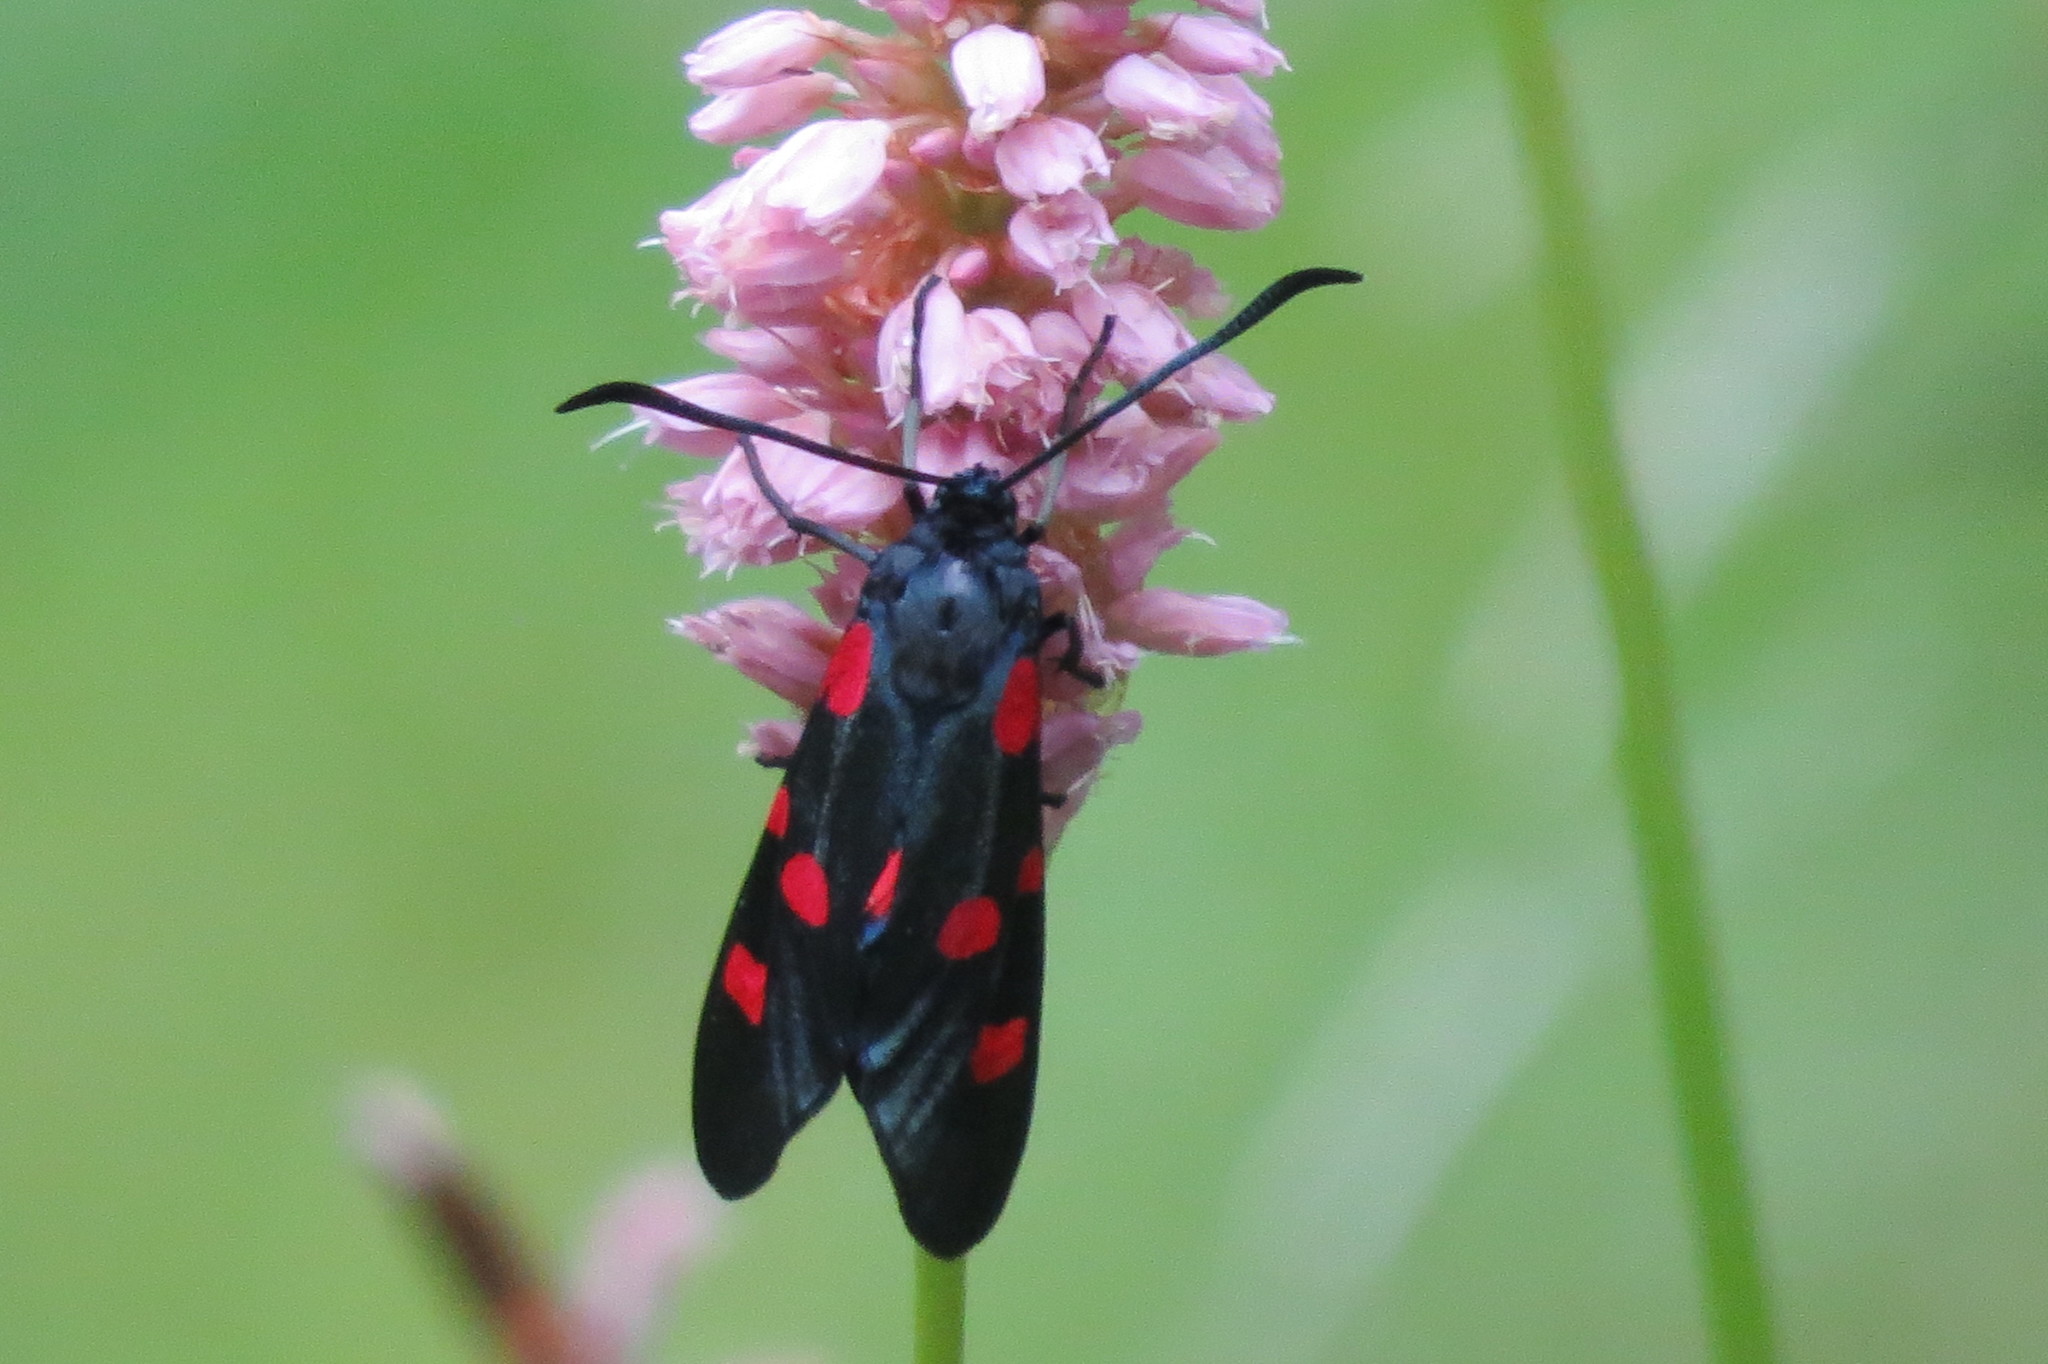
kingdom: Animalia
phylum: Arthropoda
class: Insecta
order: Lepidoptera
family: Zygaenidae
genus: Zygaena
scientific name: Zygaena lonicerae
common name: Narrow-bordered five-spot burnet
